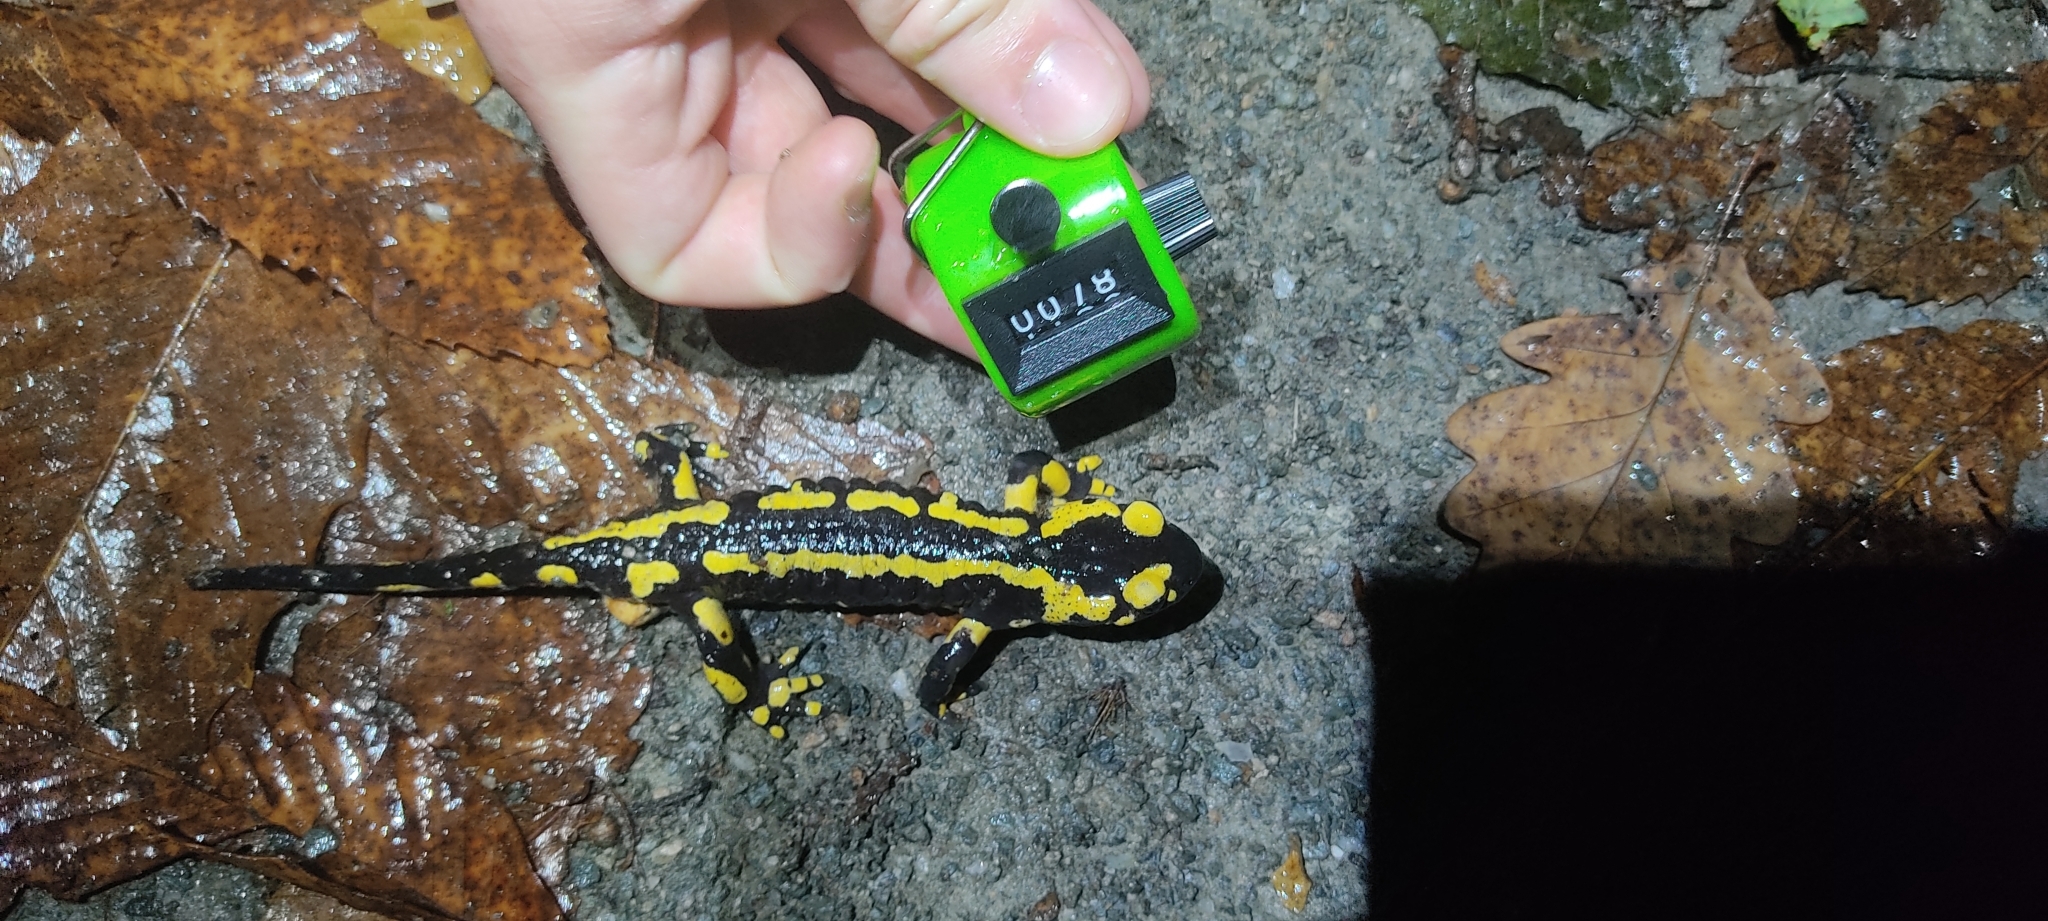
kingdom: Animalia
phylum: Chordata
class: Amphibia
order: Caudata
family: Salamandridae
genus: Salamandra
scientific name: Salamandra salamandra
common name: Fire salamander
